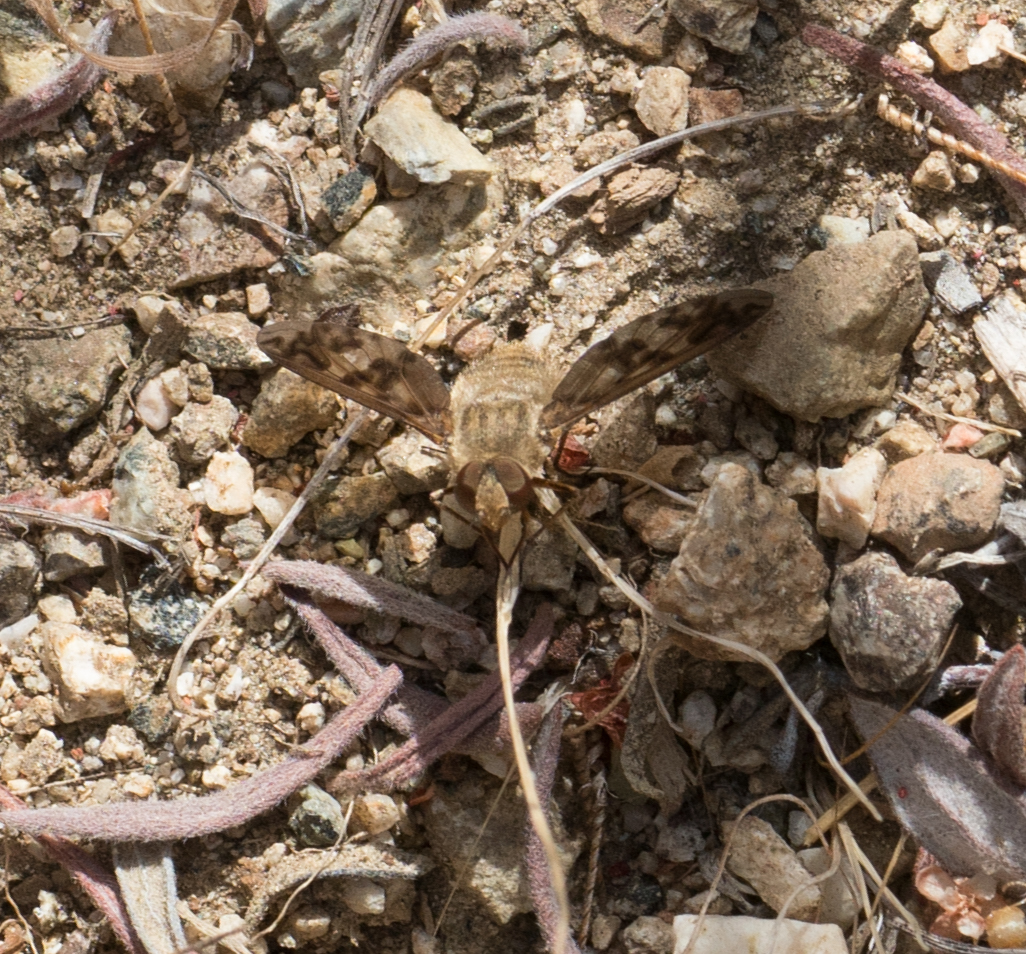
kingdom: Animalia
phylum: Arthropoda
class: Insecta
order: Diptera
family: Bombyliidae
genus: Dipalta
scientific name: Dipalta serpentina
